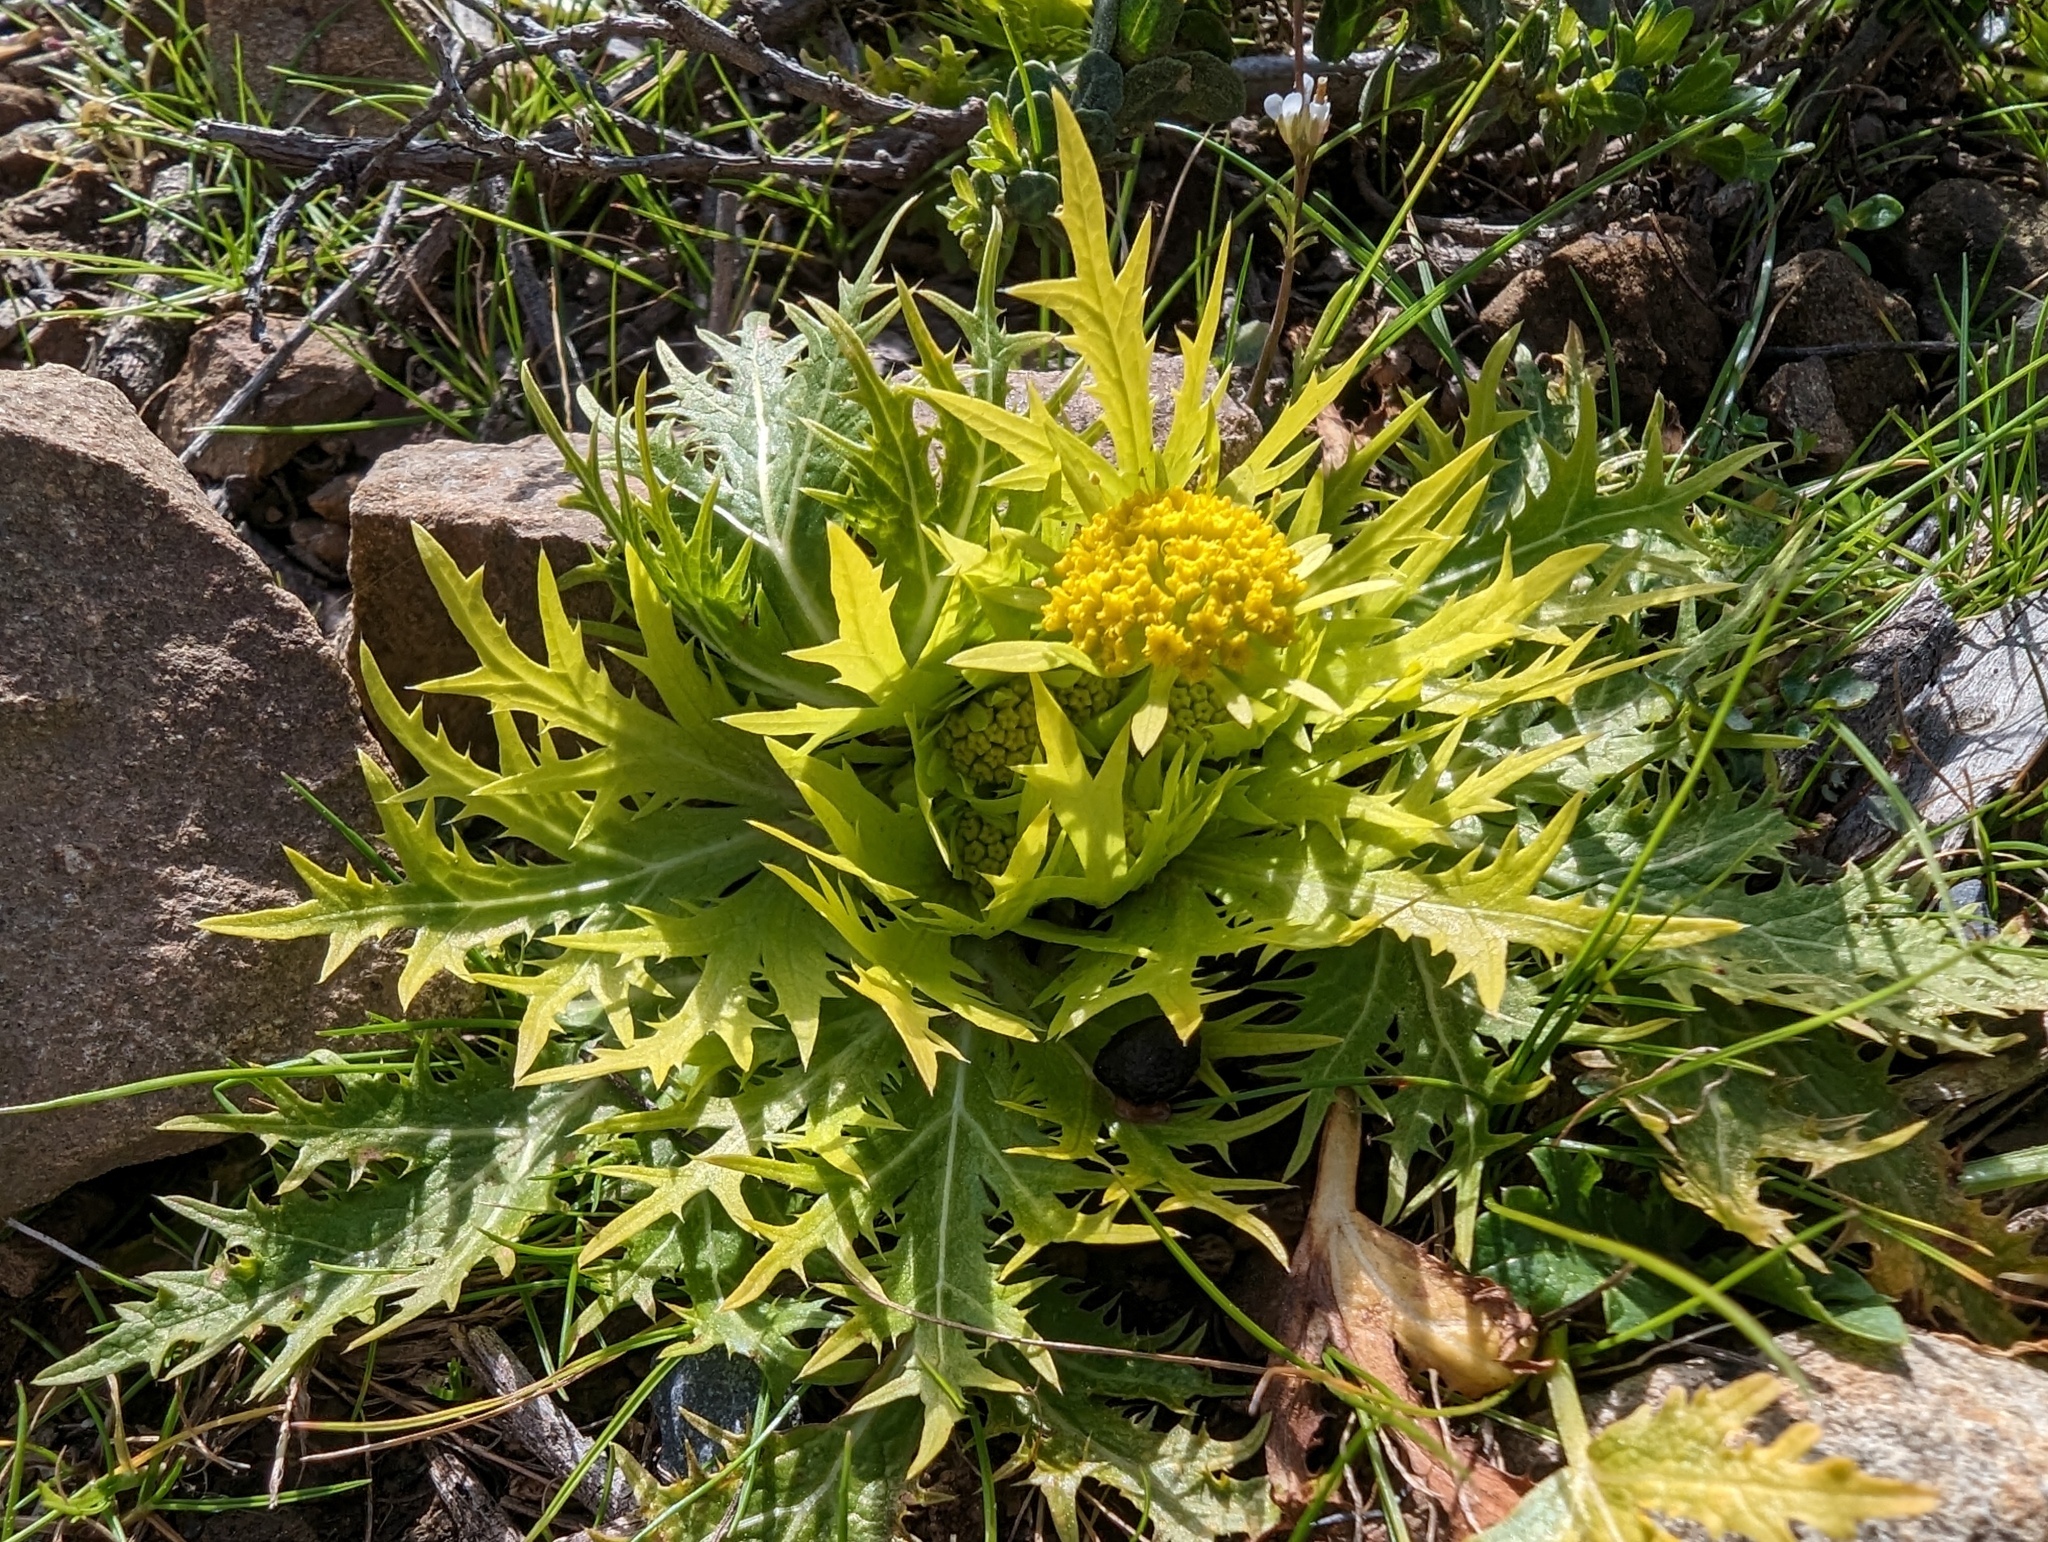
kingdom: Plantae
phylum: Tracheophyta
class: Magnoliopsida
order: Apiales
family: Apiaceae
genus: Sanicula
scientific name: Sanicula arctopoides
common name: Footsteps-of-spring
